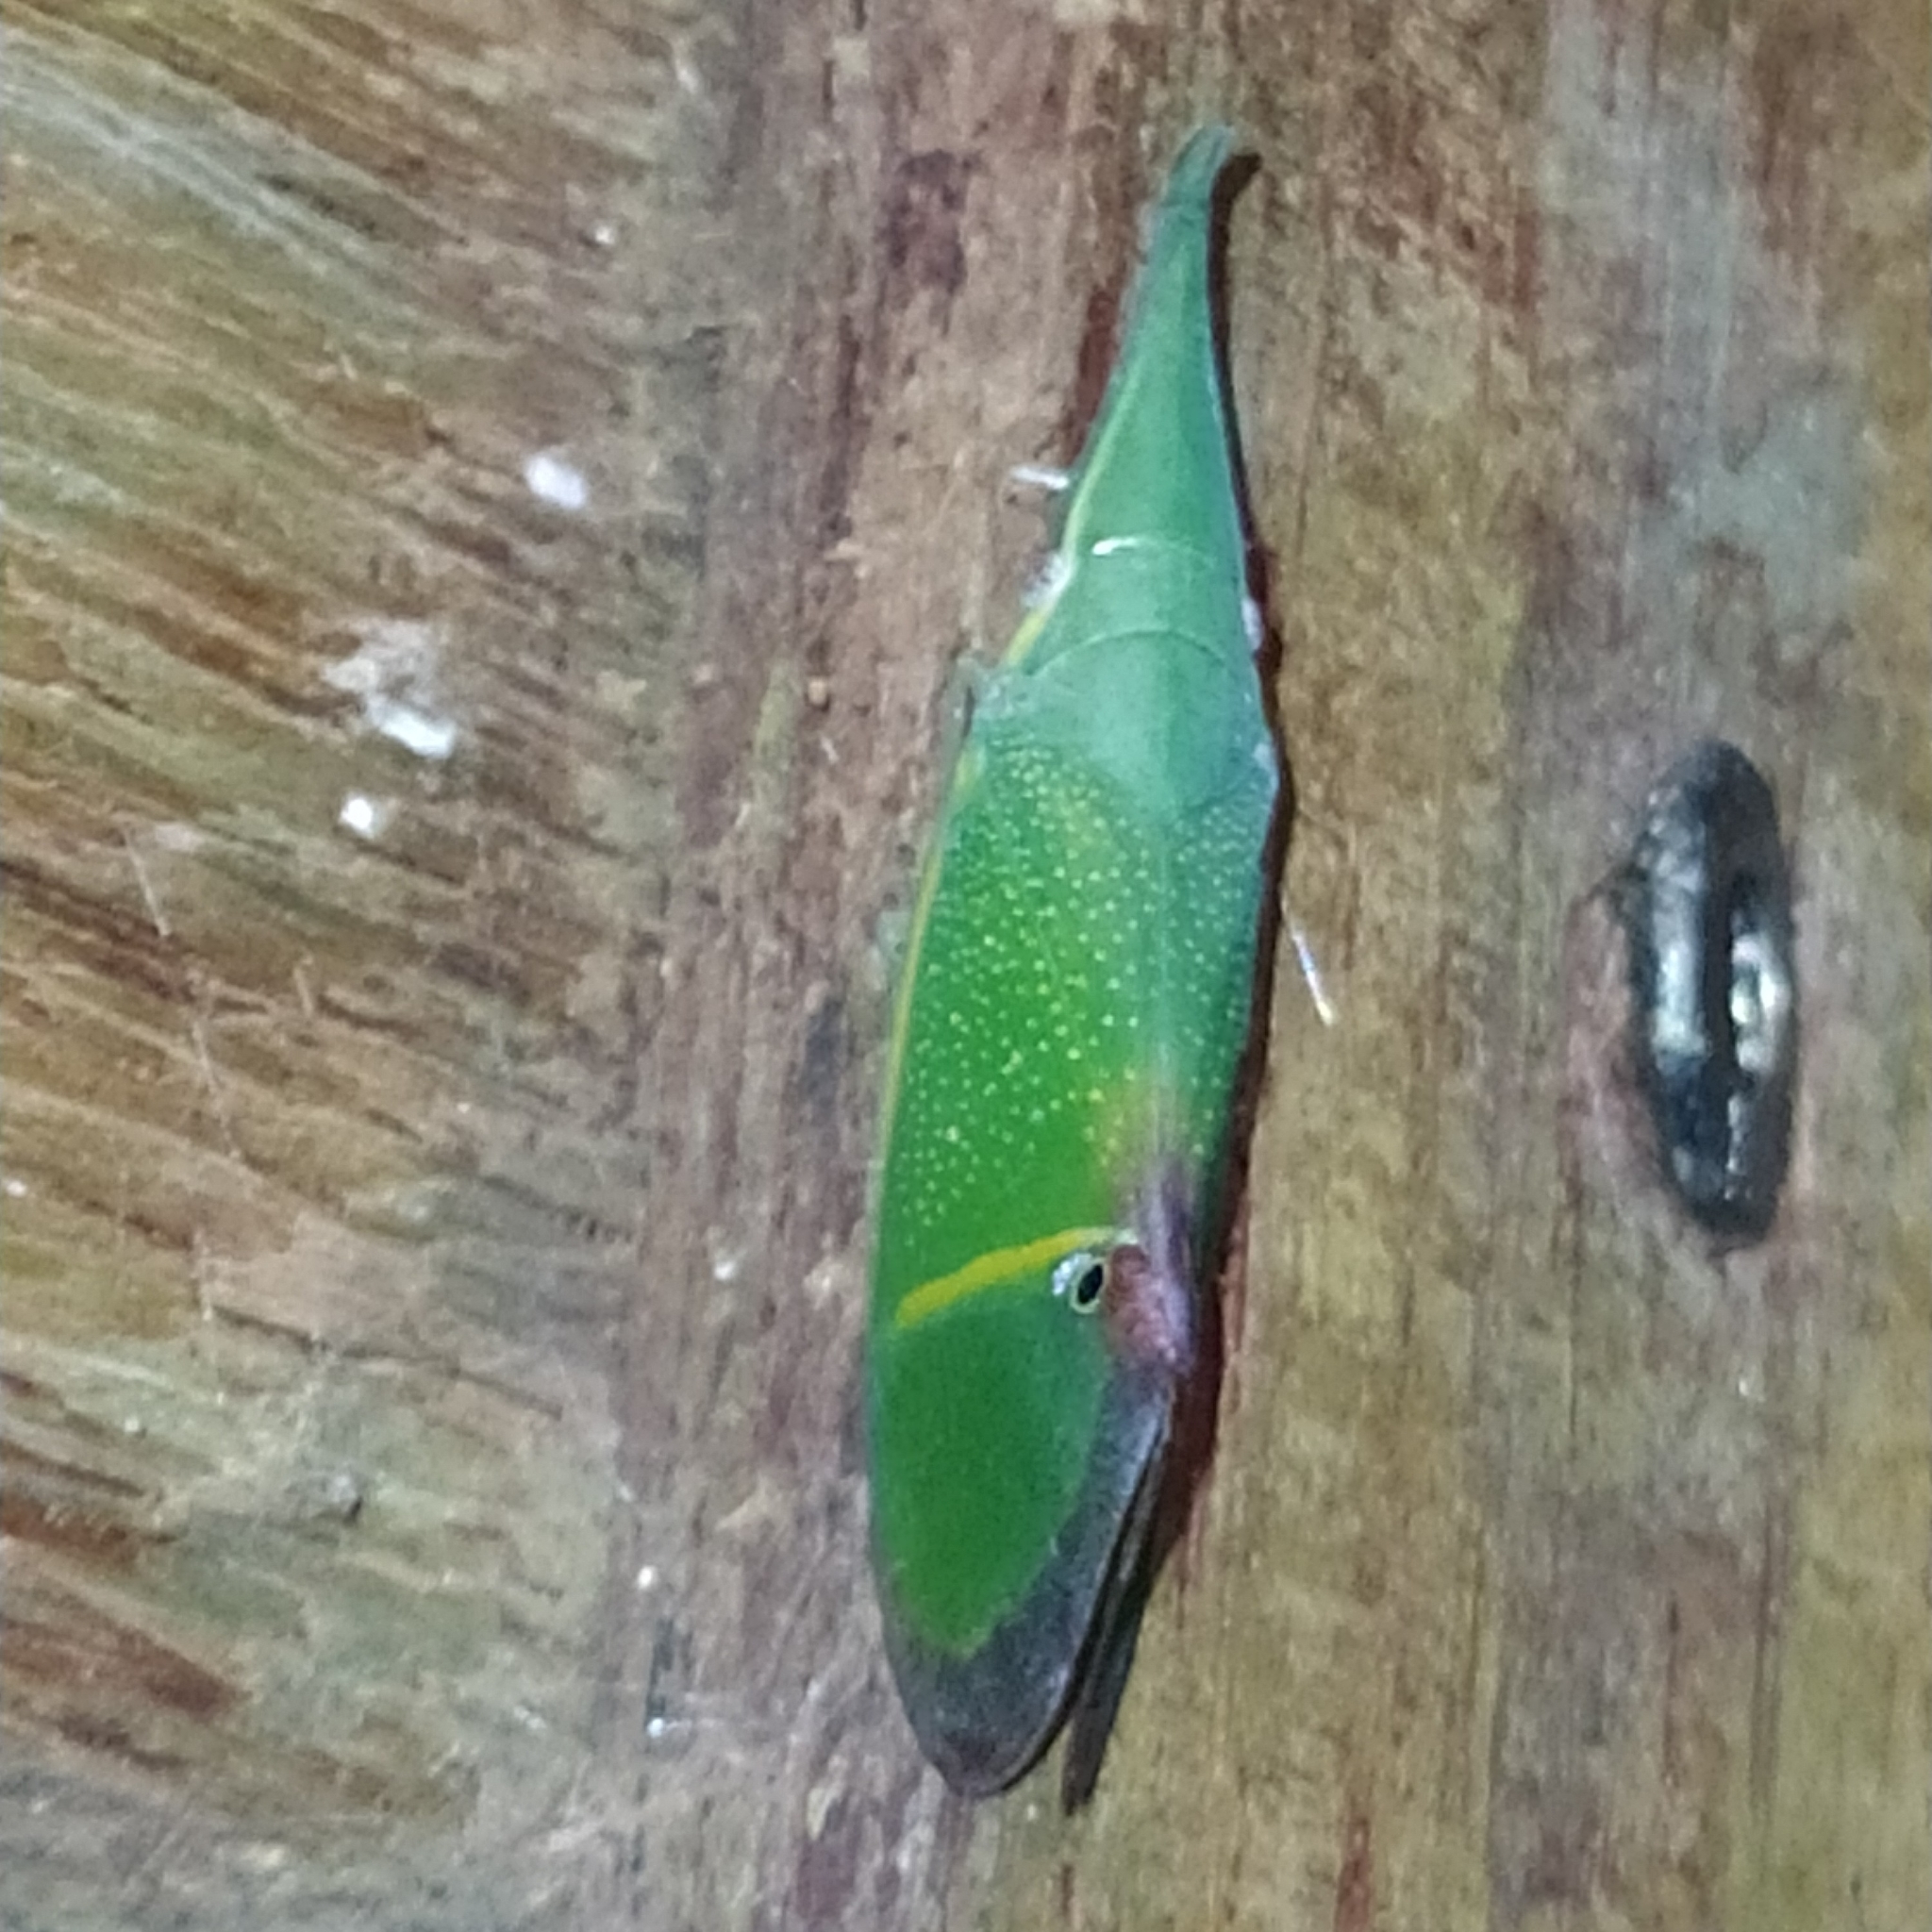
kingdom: Animalia
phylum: Arthropoda
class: Insecta
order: Hemiptera
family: Fulgoridae
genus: Odontoptera
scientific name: Odontoptera carrenoi
